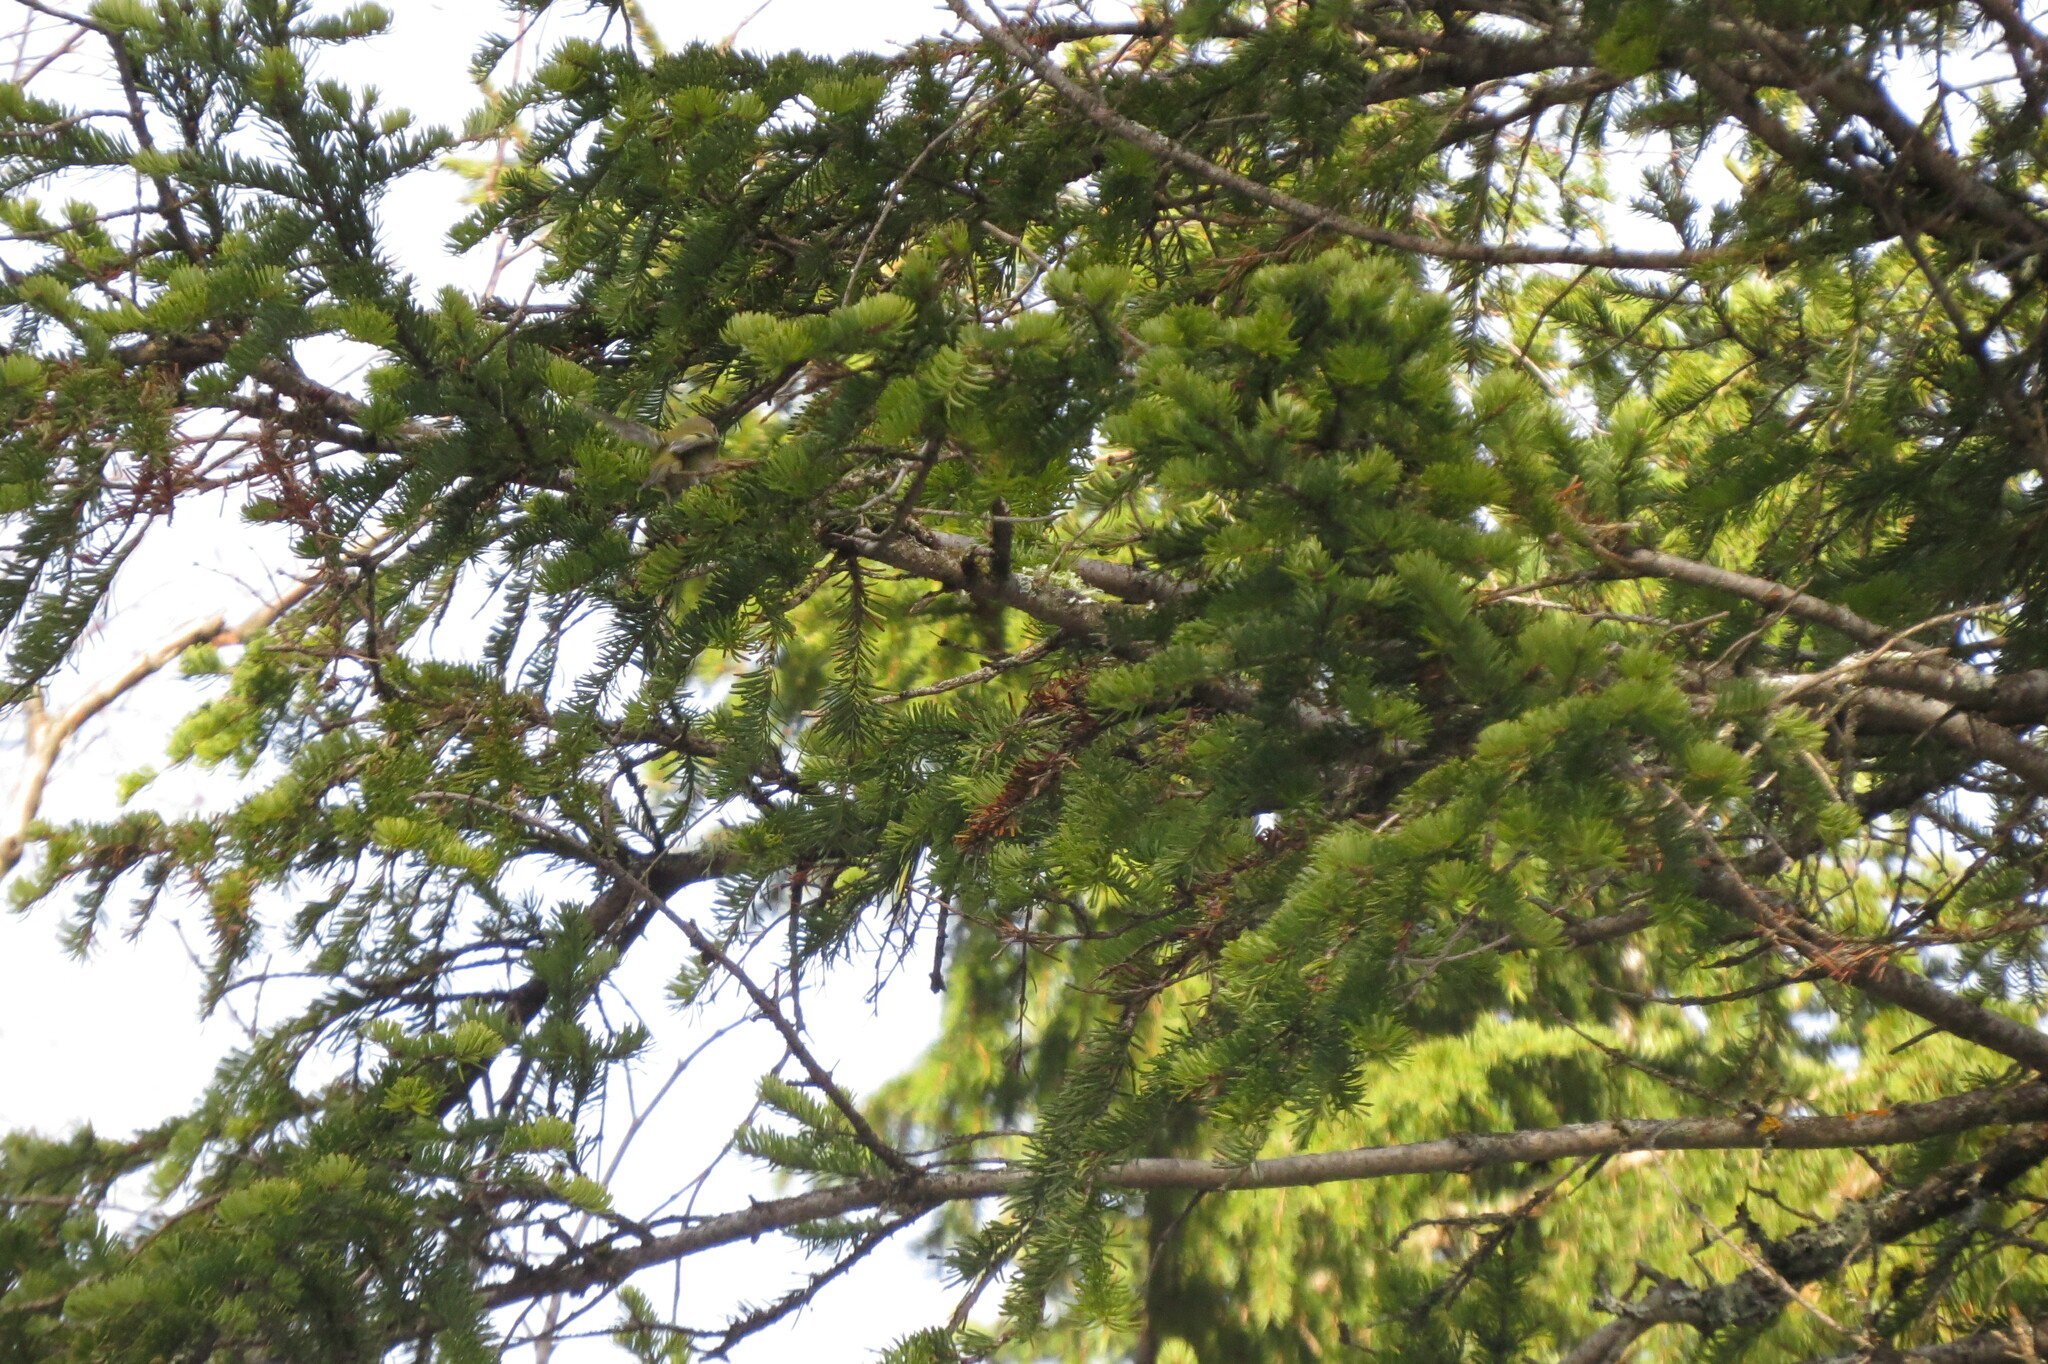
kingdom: Animalia
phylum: Chordata
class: Aves
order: Passeriformes
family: Regulidae
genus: Regulus
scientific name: Regulus regulus
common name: Goldcrest
